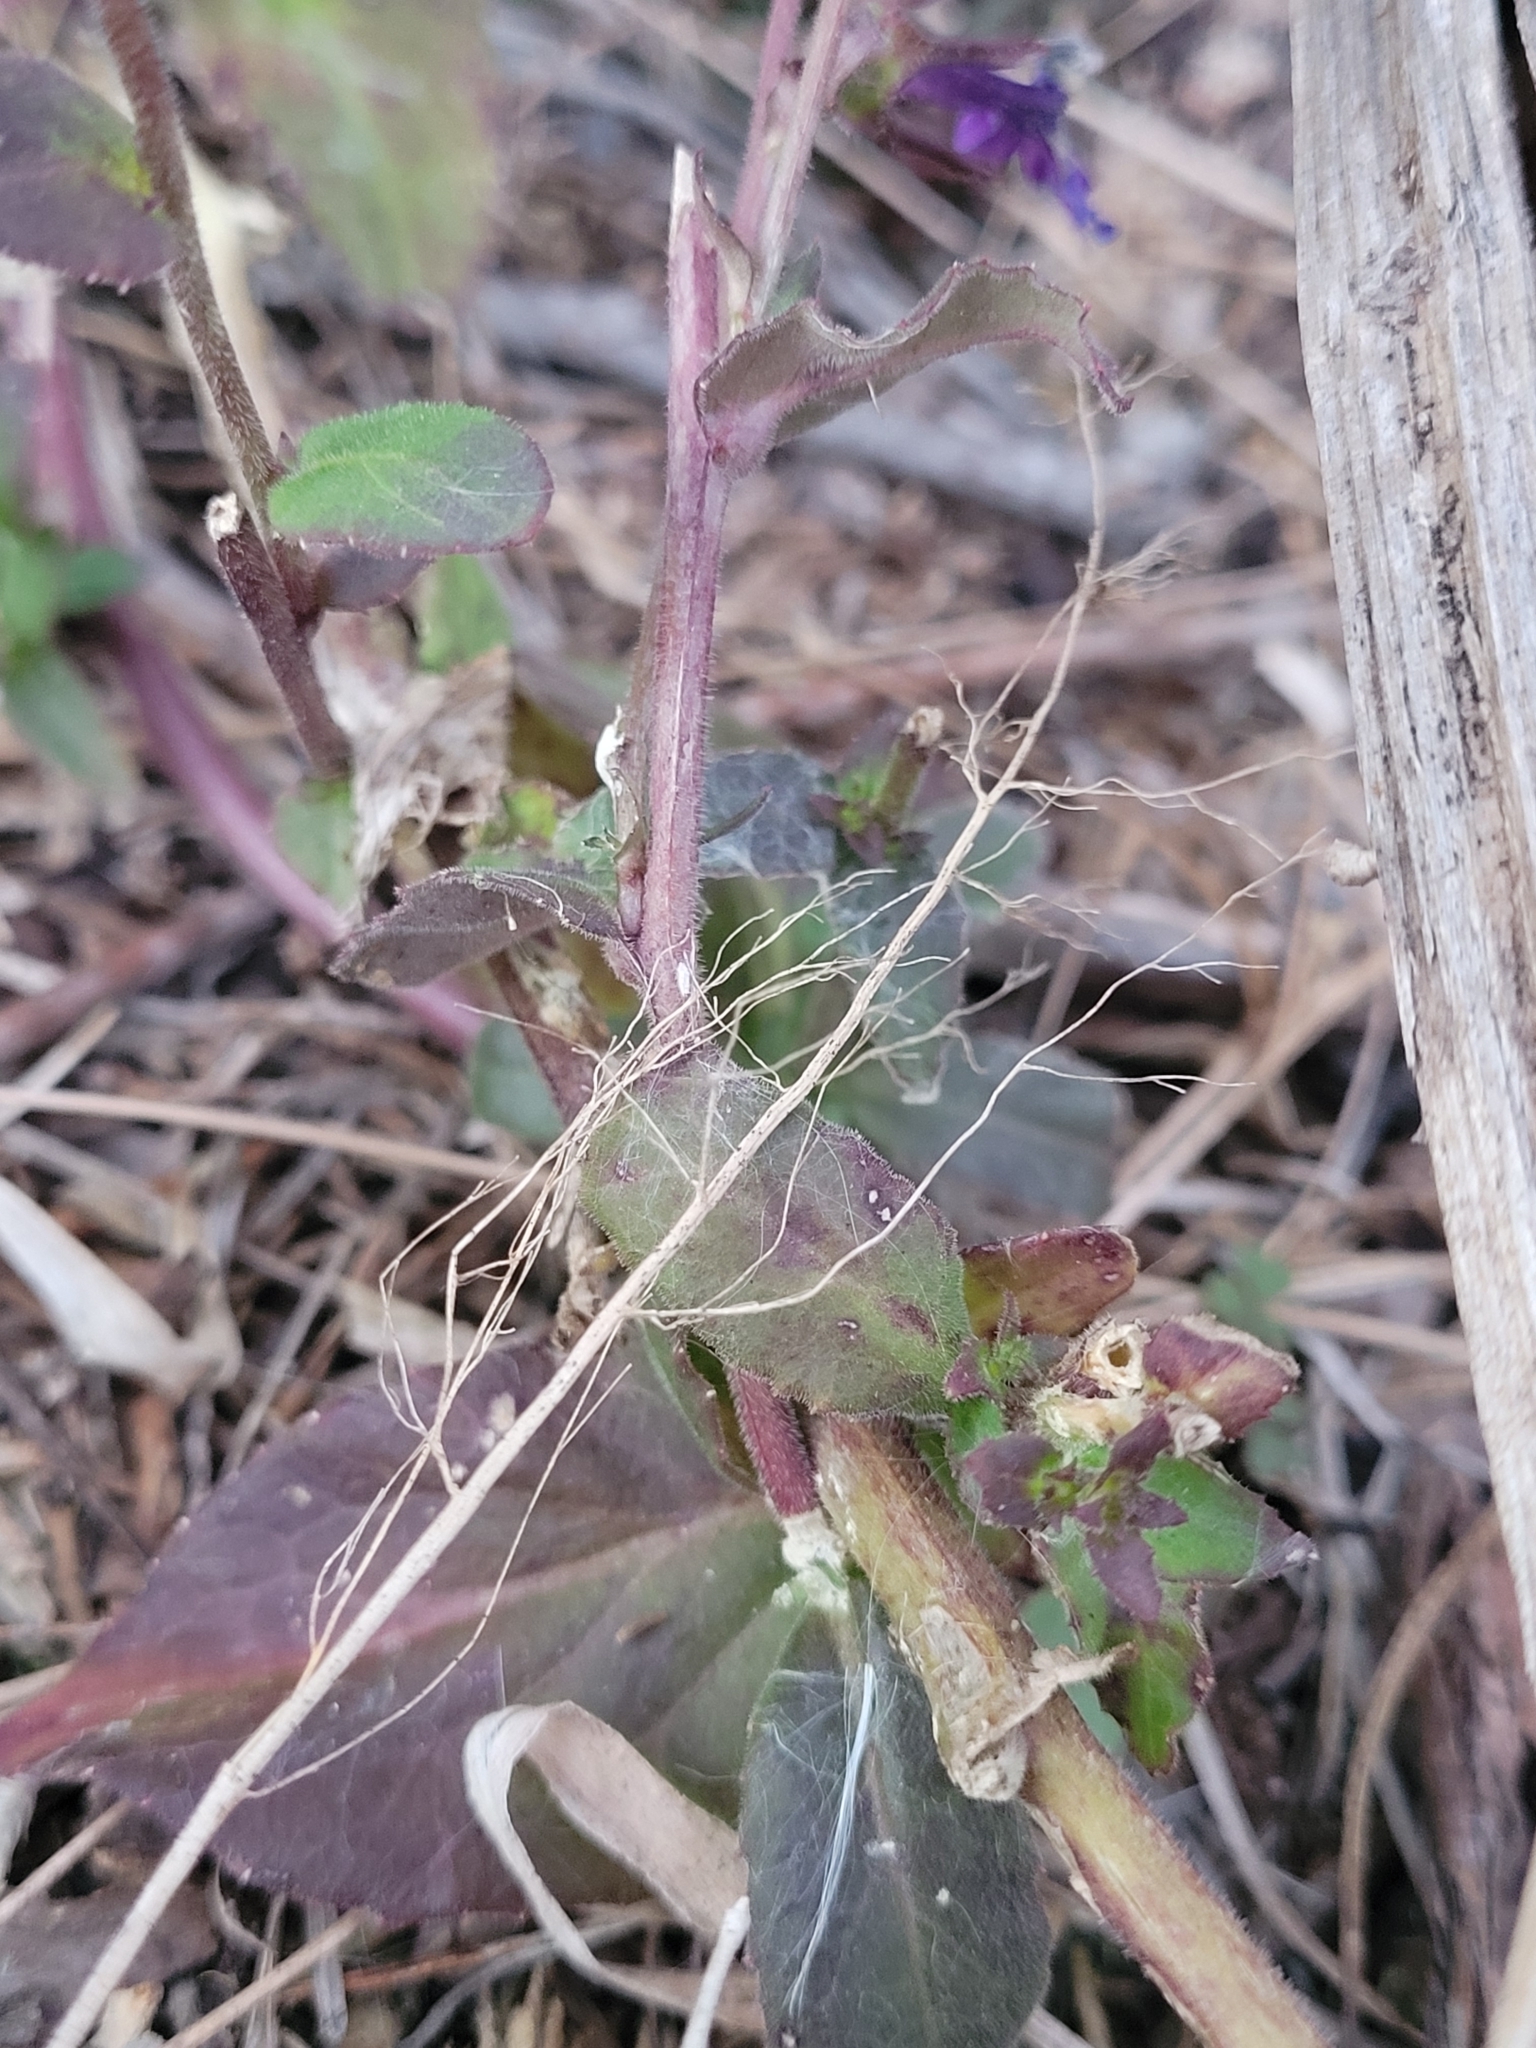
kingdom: Plantae
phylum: Tracheophyta
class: Magnoliopsida
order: Asterales
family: Campanulaceae
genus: Lobelia
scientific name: Lobelia puberula
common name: Purple dewdrop
